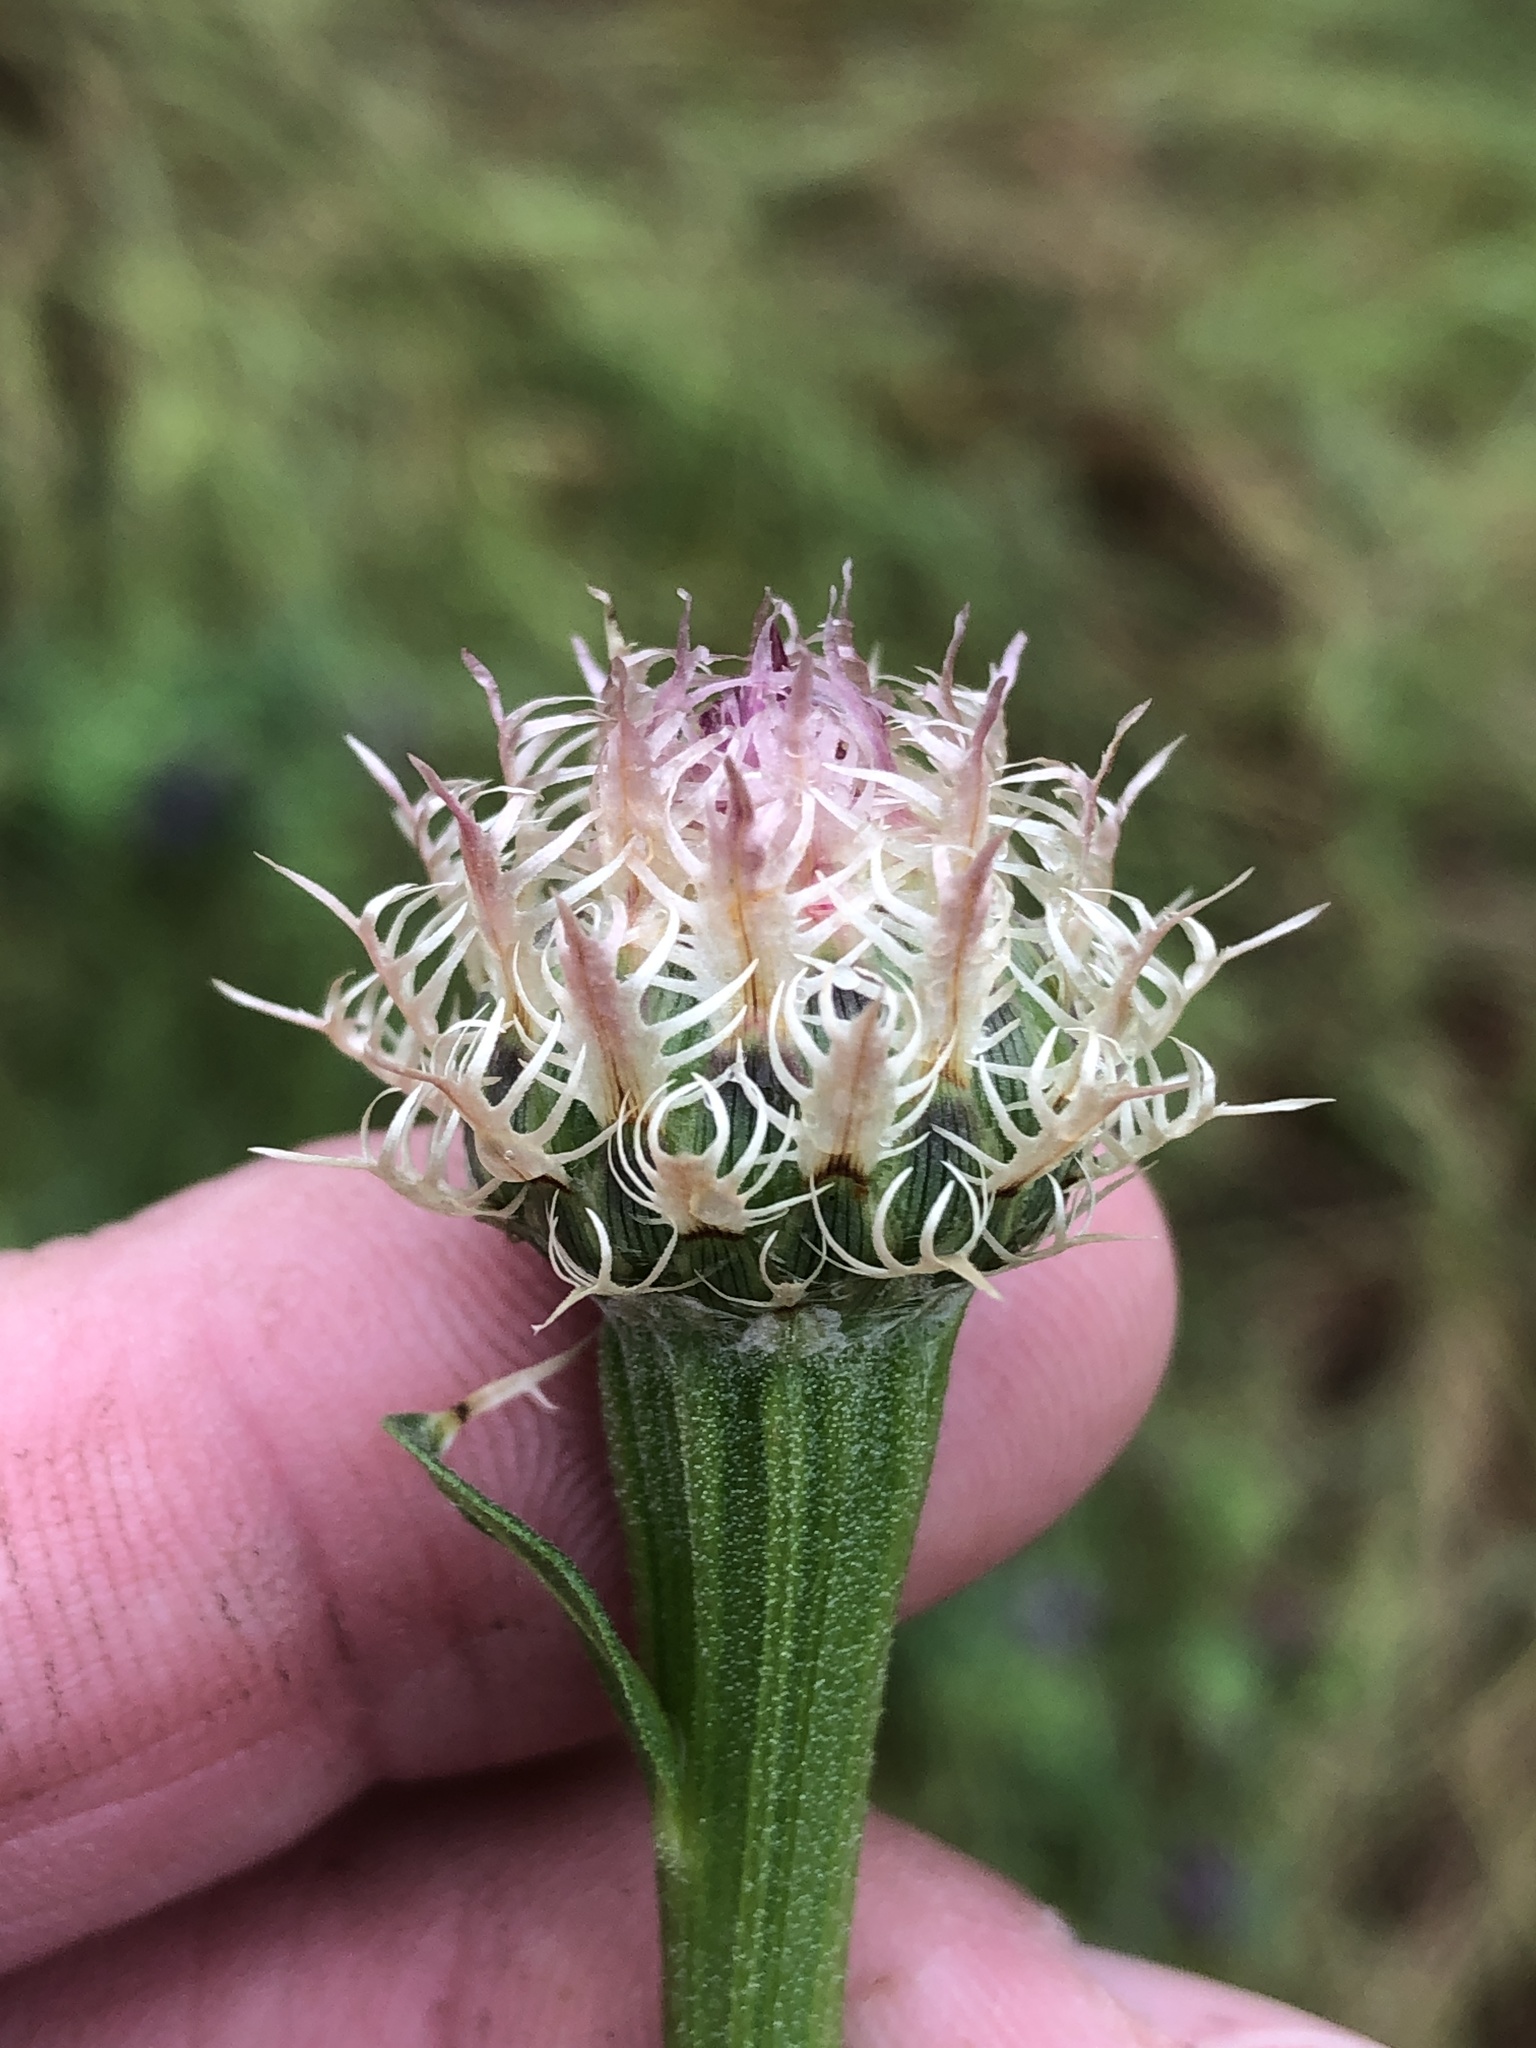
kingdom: Plantae
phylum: Tracheophyta
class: Magnoliopsida
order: Asterales
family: Asteraceae
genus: Plectocephalus
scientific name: Plectocephalus americanus
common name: American basket-flower
